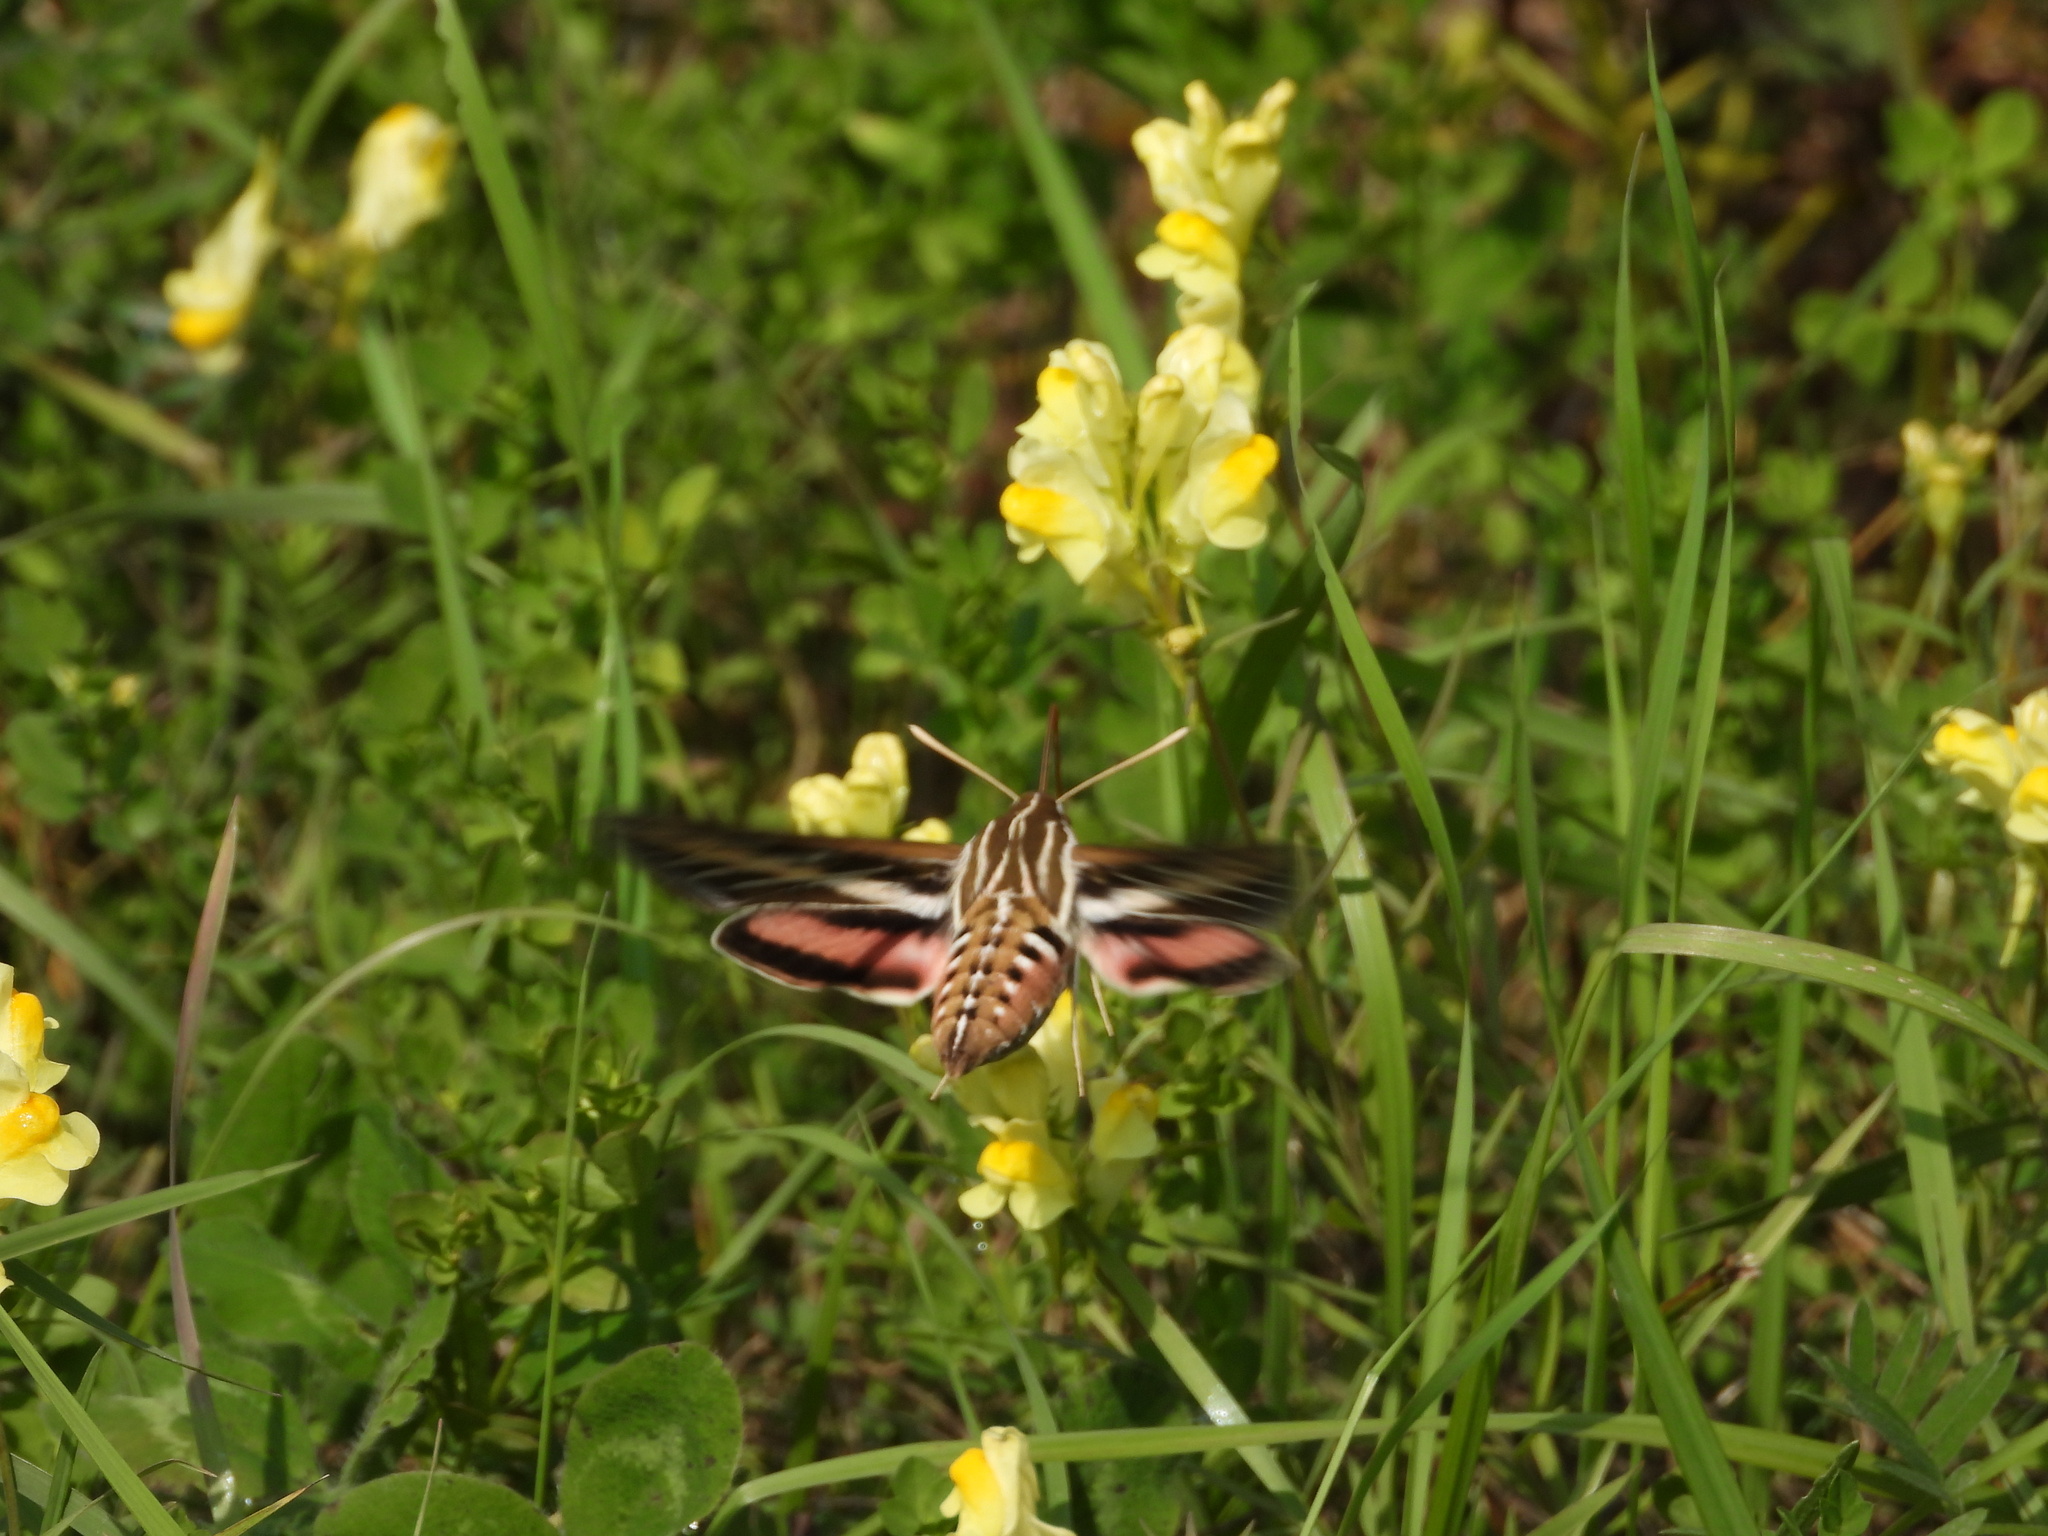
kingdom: Animalia
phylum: Arthropoda
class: Insecta
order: Lepidoptera
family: Sphingidae
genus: Hyles
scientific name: Hyles lineata
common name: White-lined sphinx
